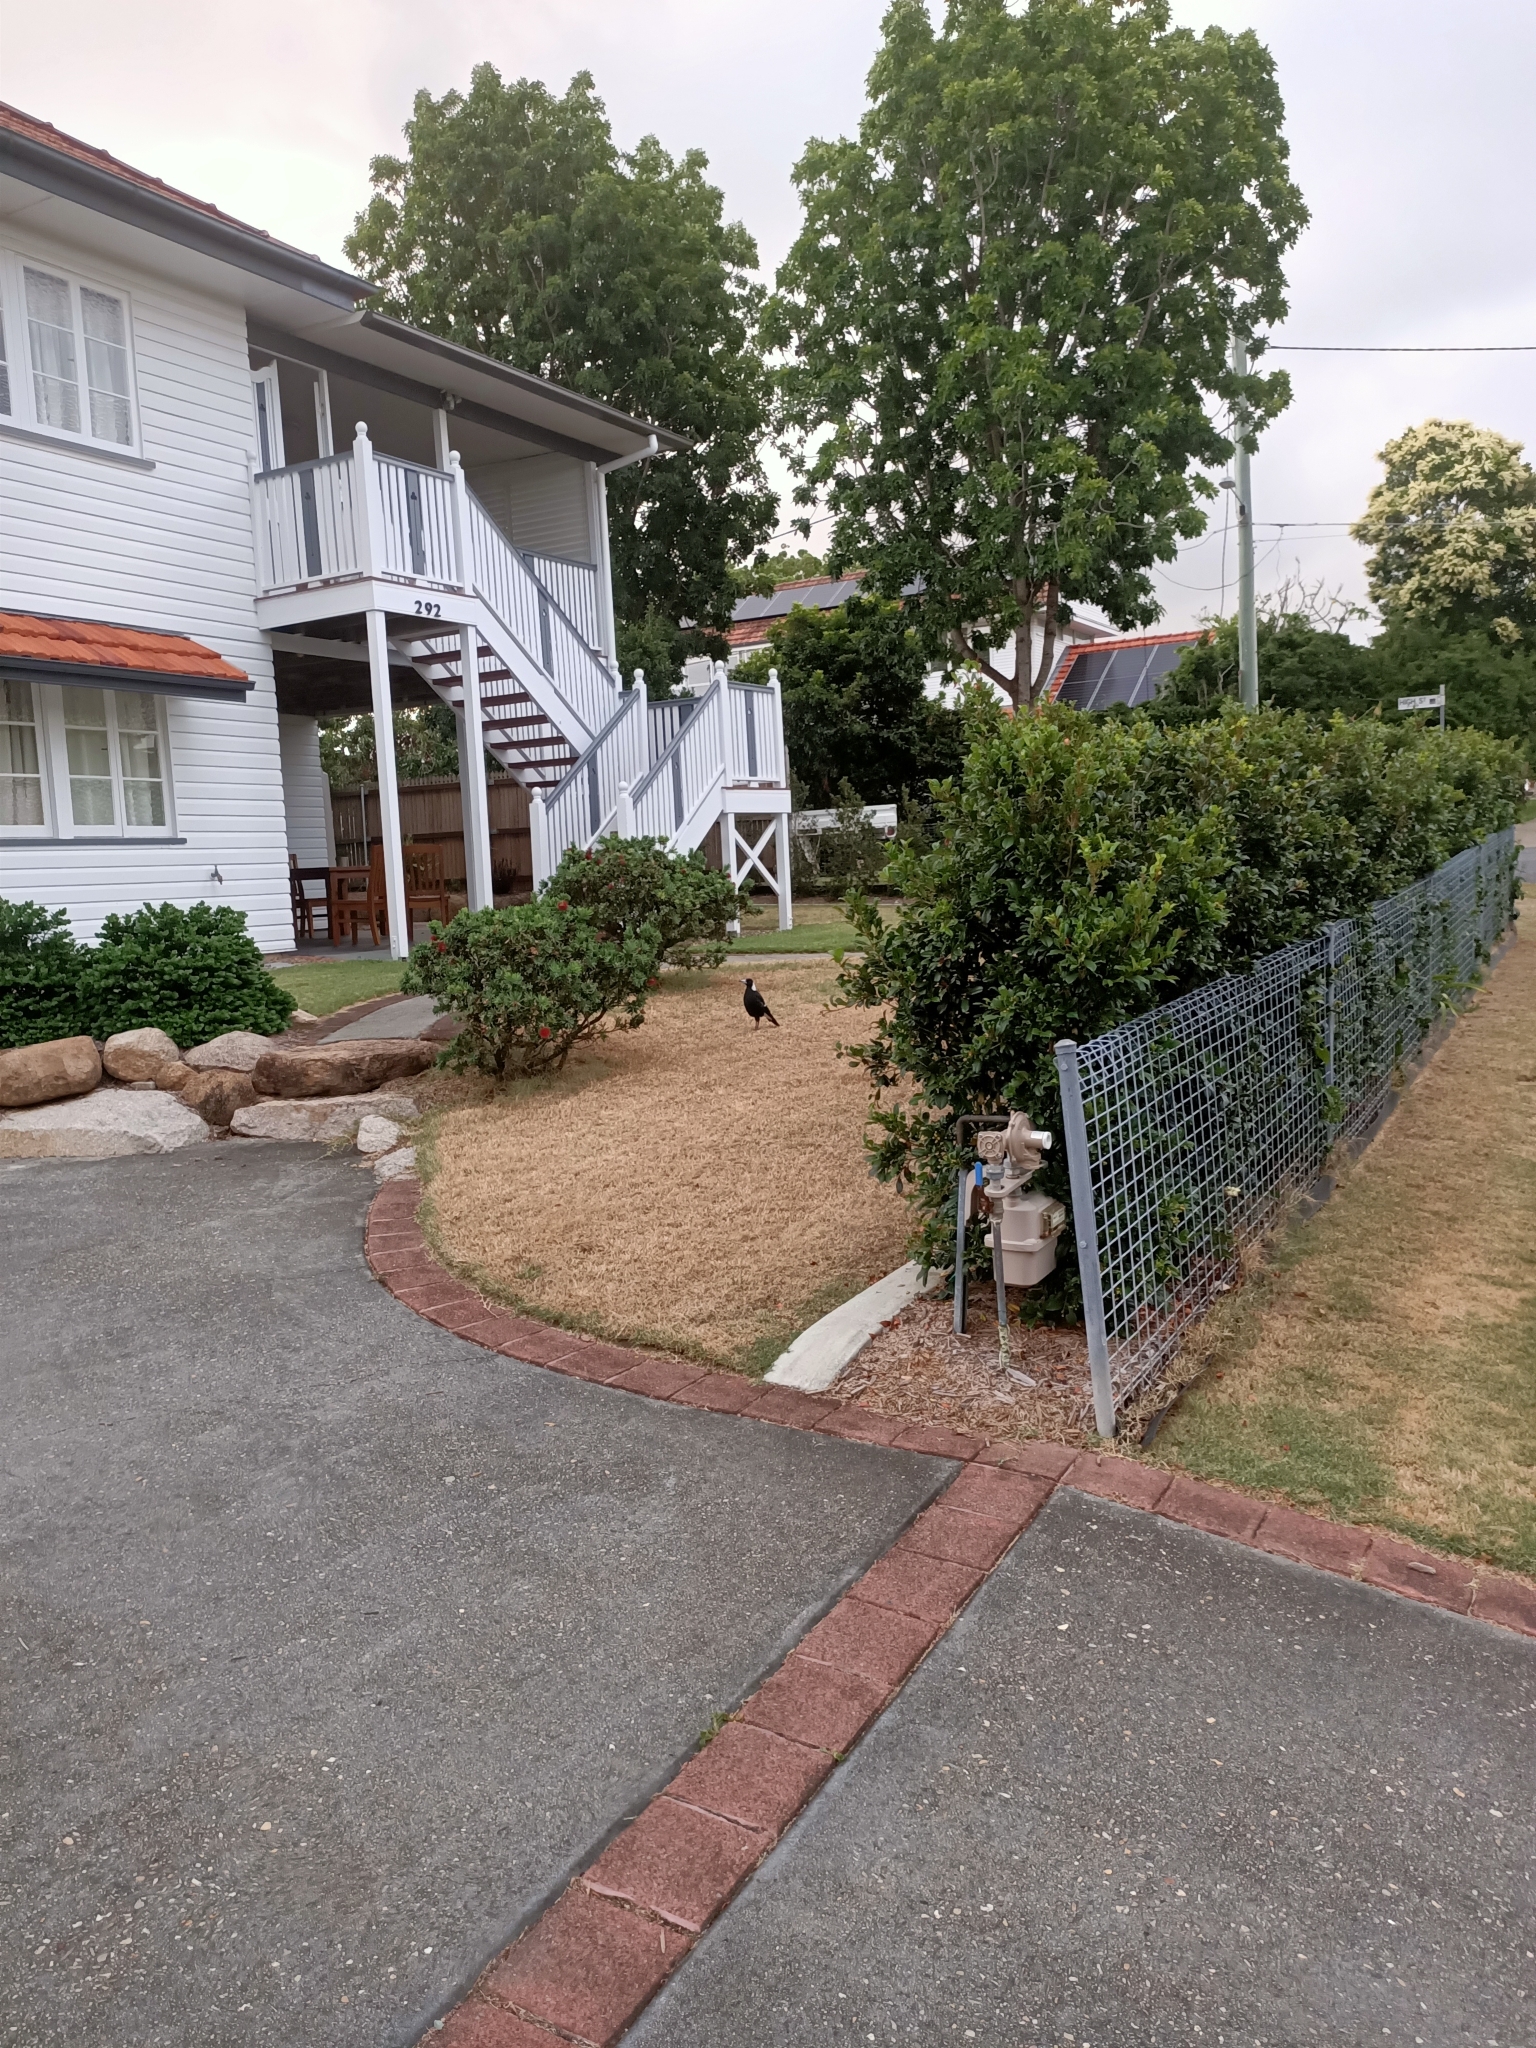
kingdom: Animalia
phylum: Chordata
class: Aves
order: Passeriformes
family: Cracticidae
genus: Gymnorhina
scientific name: Gymnorhina tibicen
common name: Australian magpie
